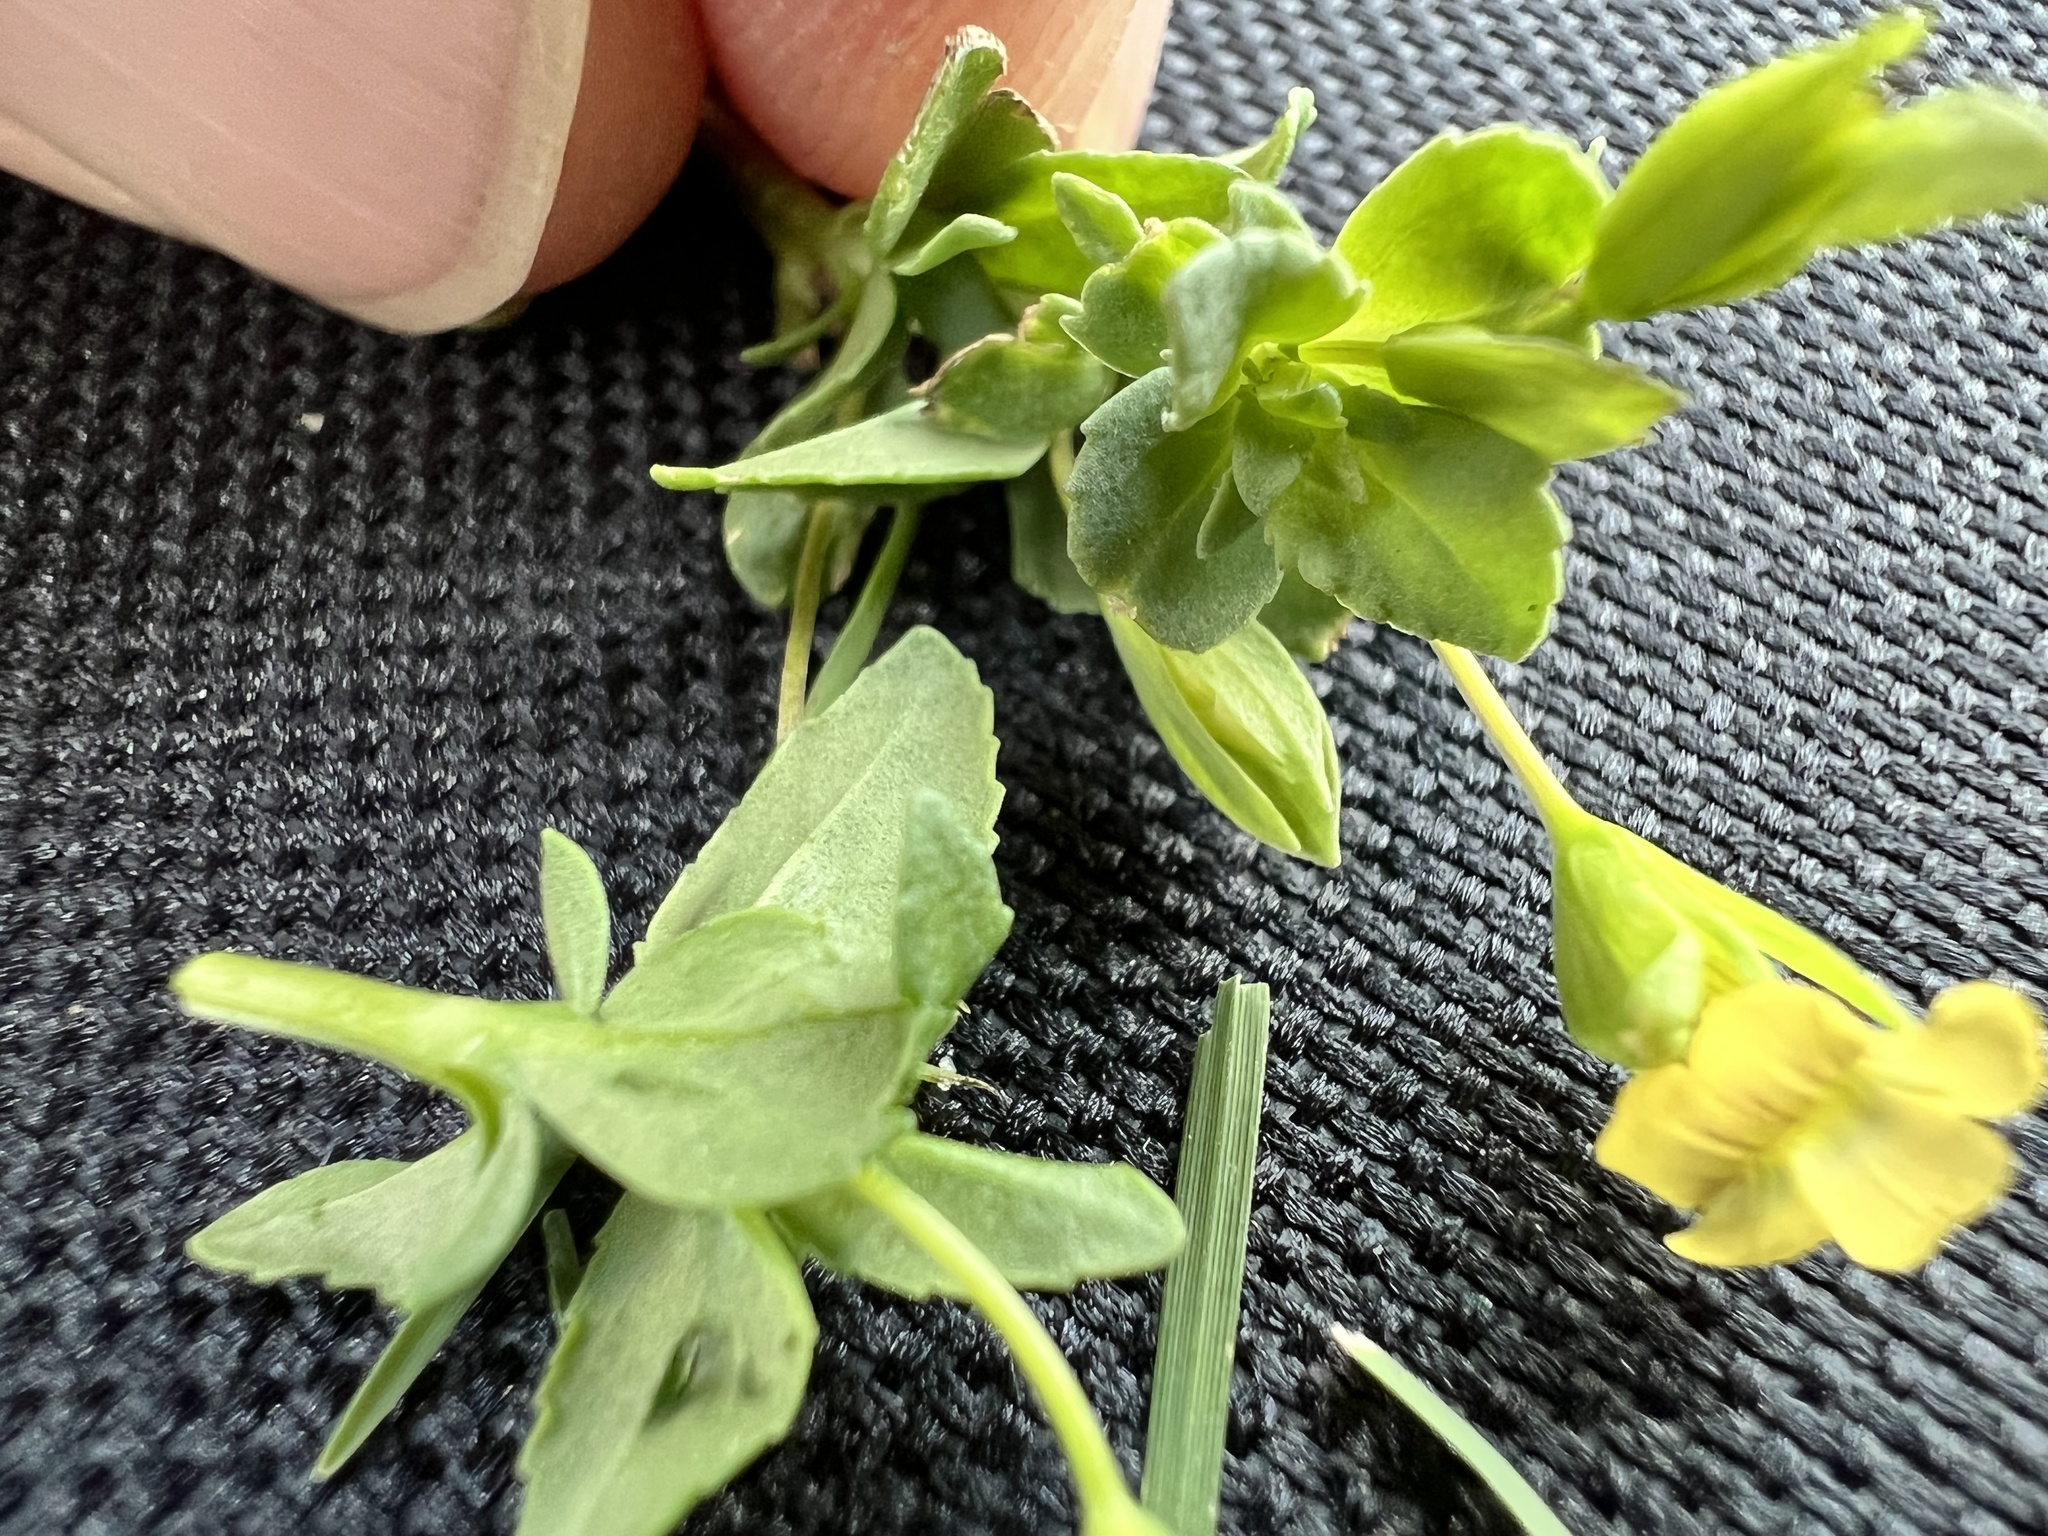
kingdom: Plantae
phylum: Tracheophyta
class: Magnoliopsida
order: Lamiales
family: Plantaginaceae
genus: Mecardonia
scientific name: Mecardonia procumbens
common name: Baby jump-up
